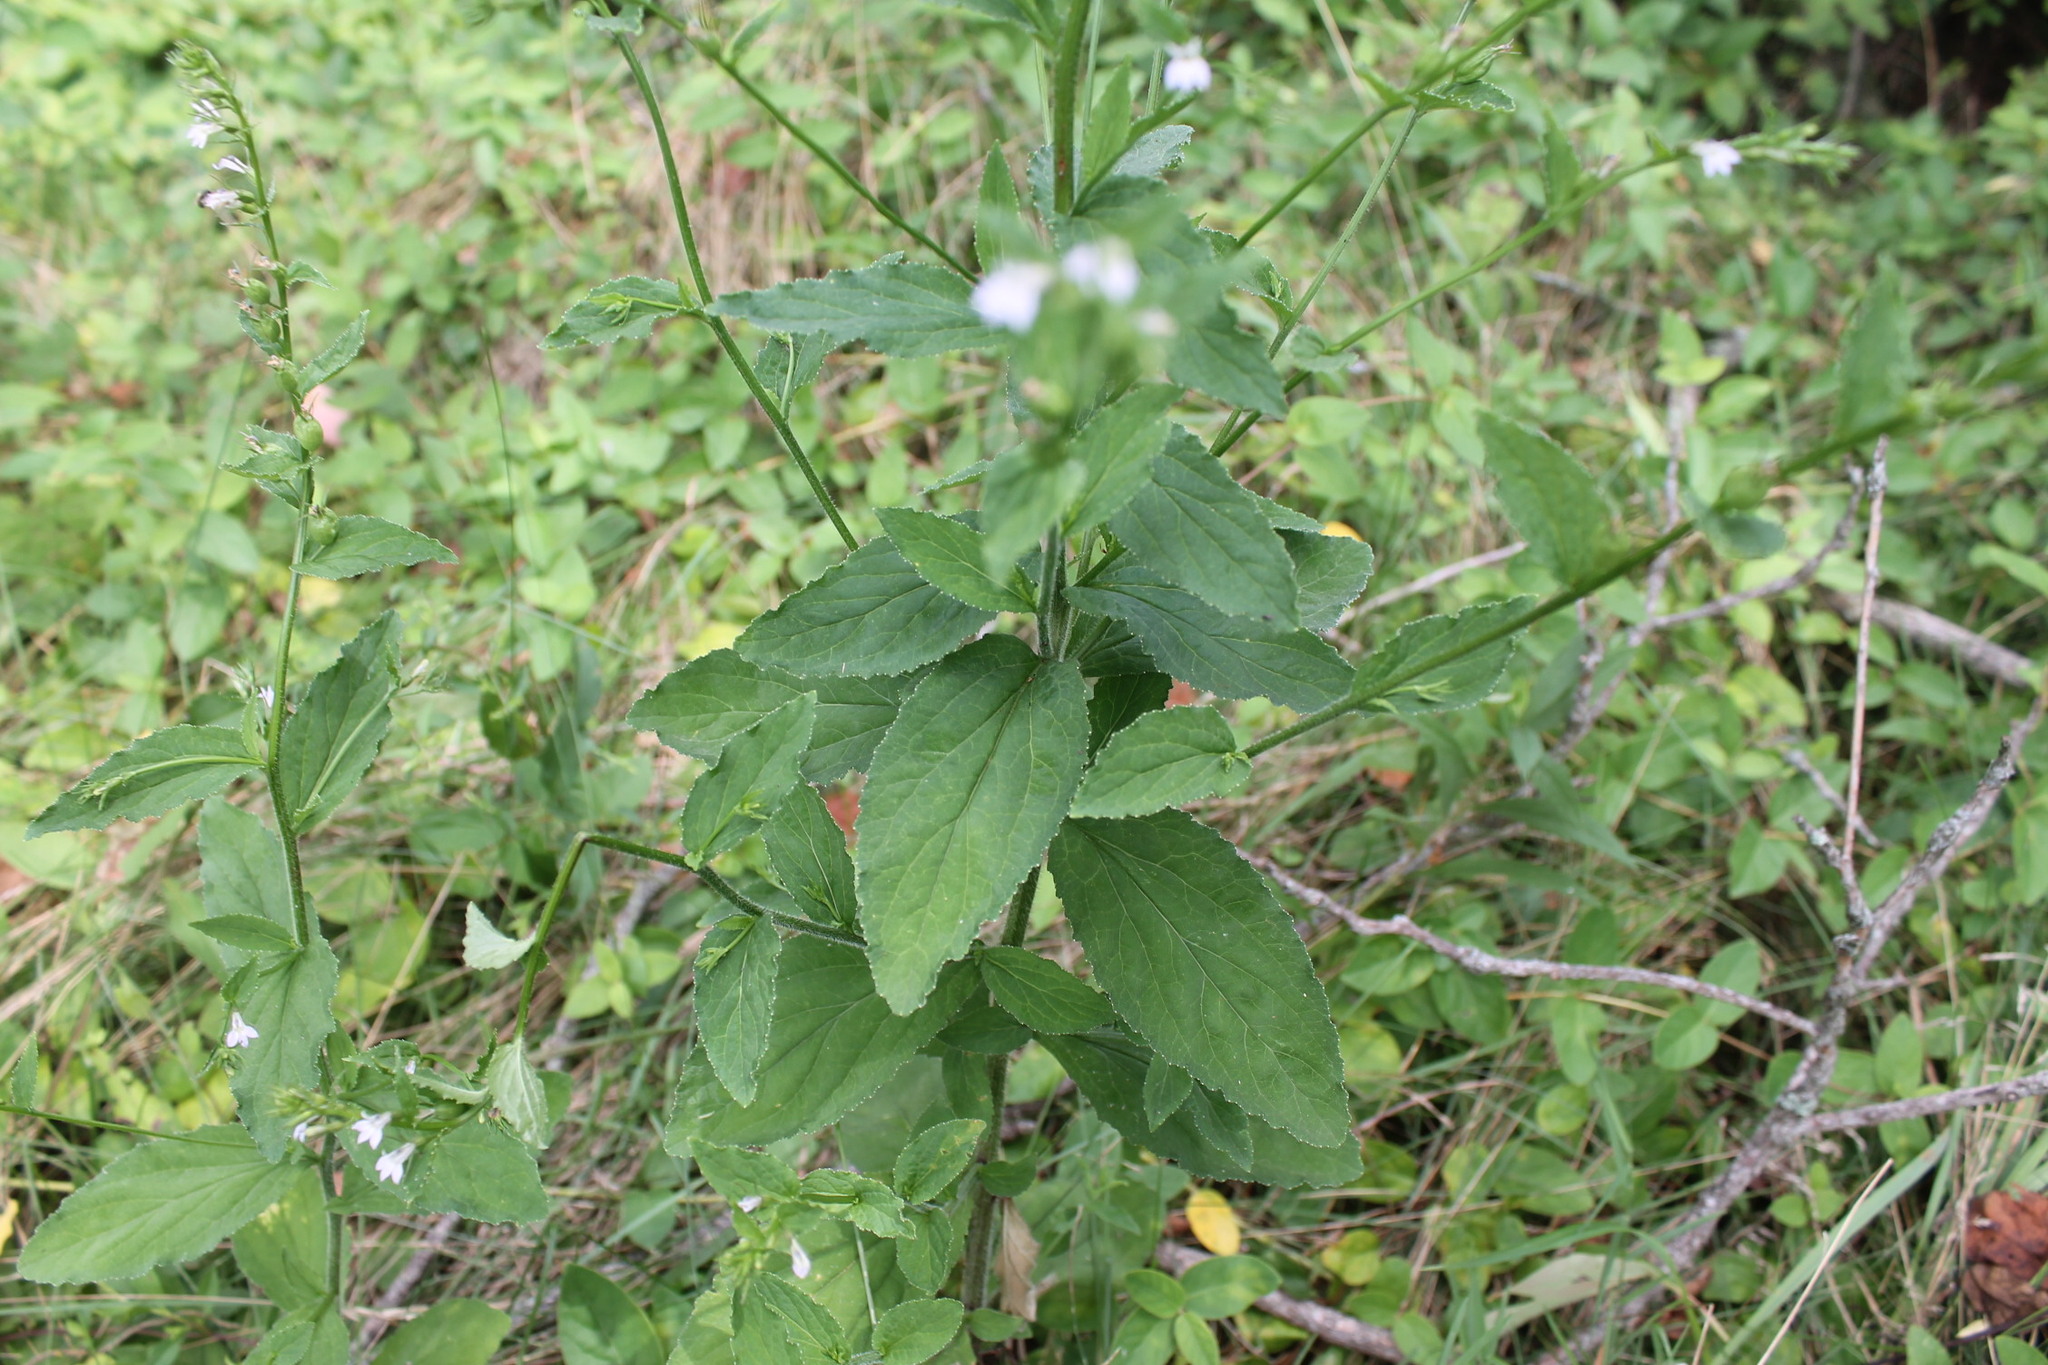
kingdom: Plantae
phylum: Tracheophyta
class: Magnoliopsida
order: Asterales
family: Campanulaceae
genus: Lobelia
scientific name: Lobelia inflata
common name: Indian tobacco
